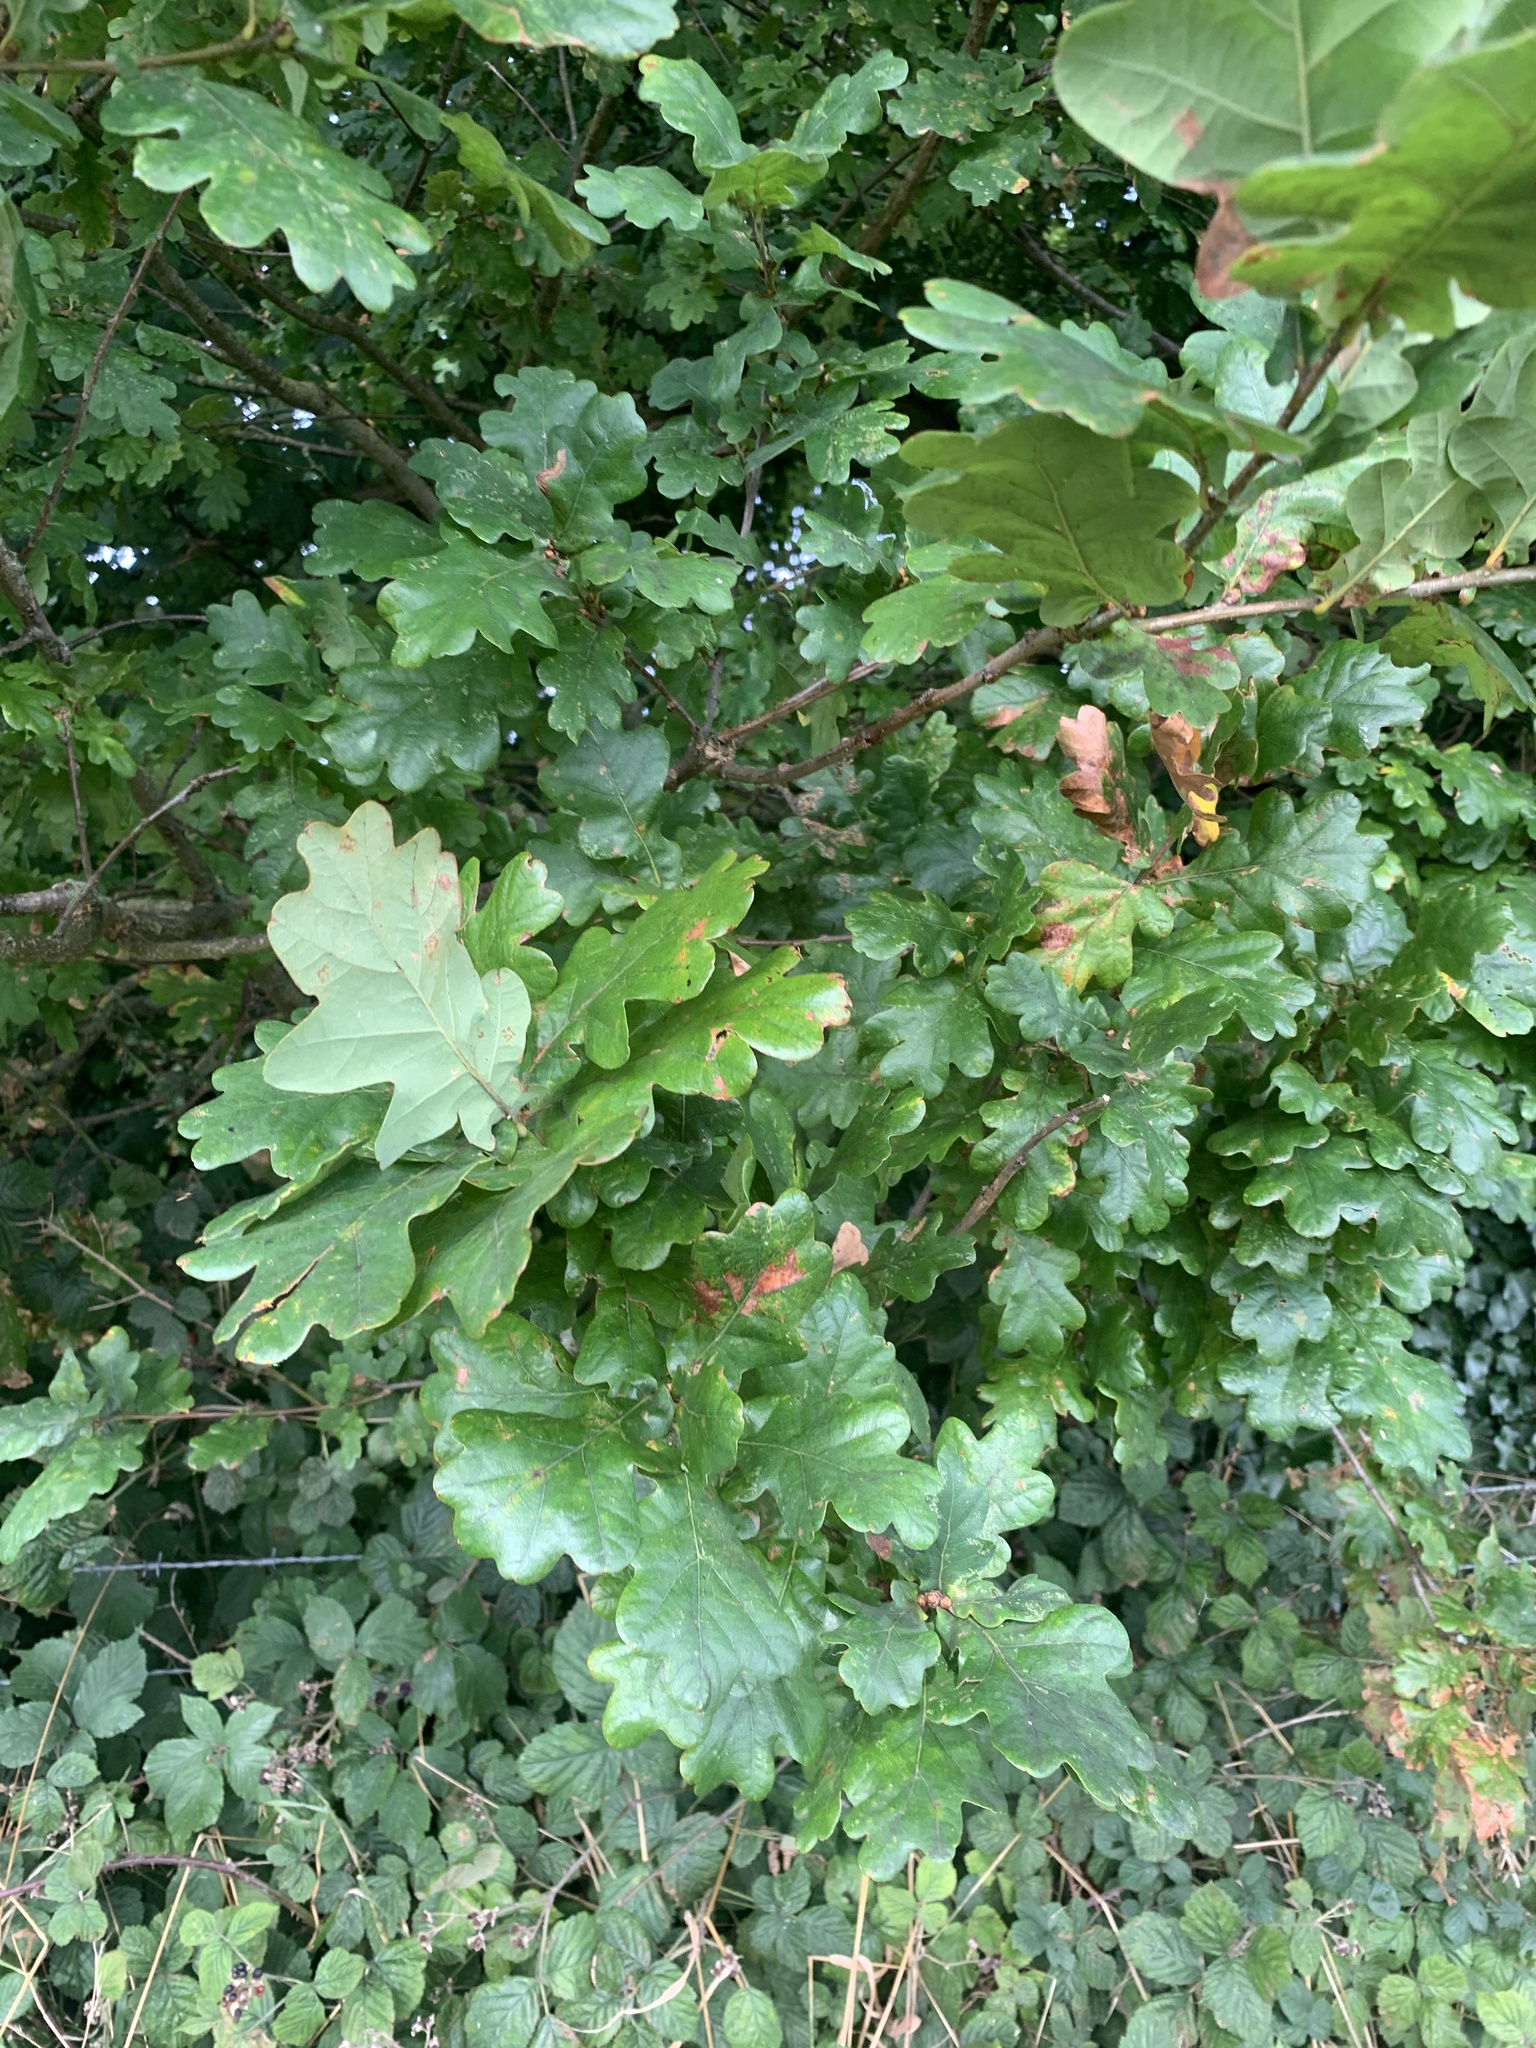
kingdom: Plantae
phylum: Tracheophyta
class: Magnoliopsida
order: Fagales
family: Fagaceae
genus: Quercus
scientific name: Quercus robur
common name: Pedunculate oak
